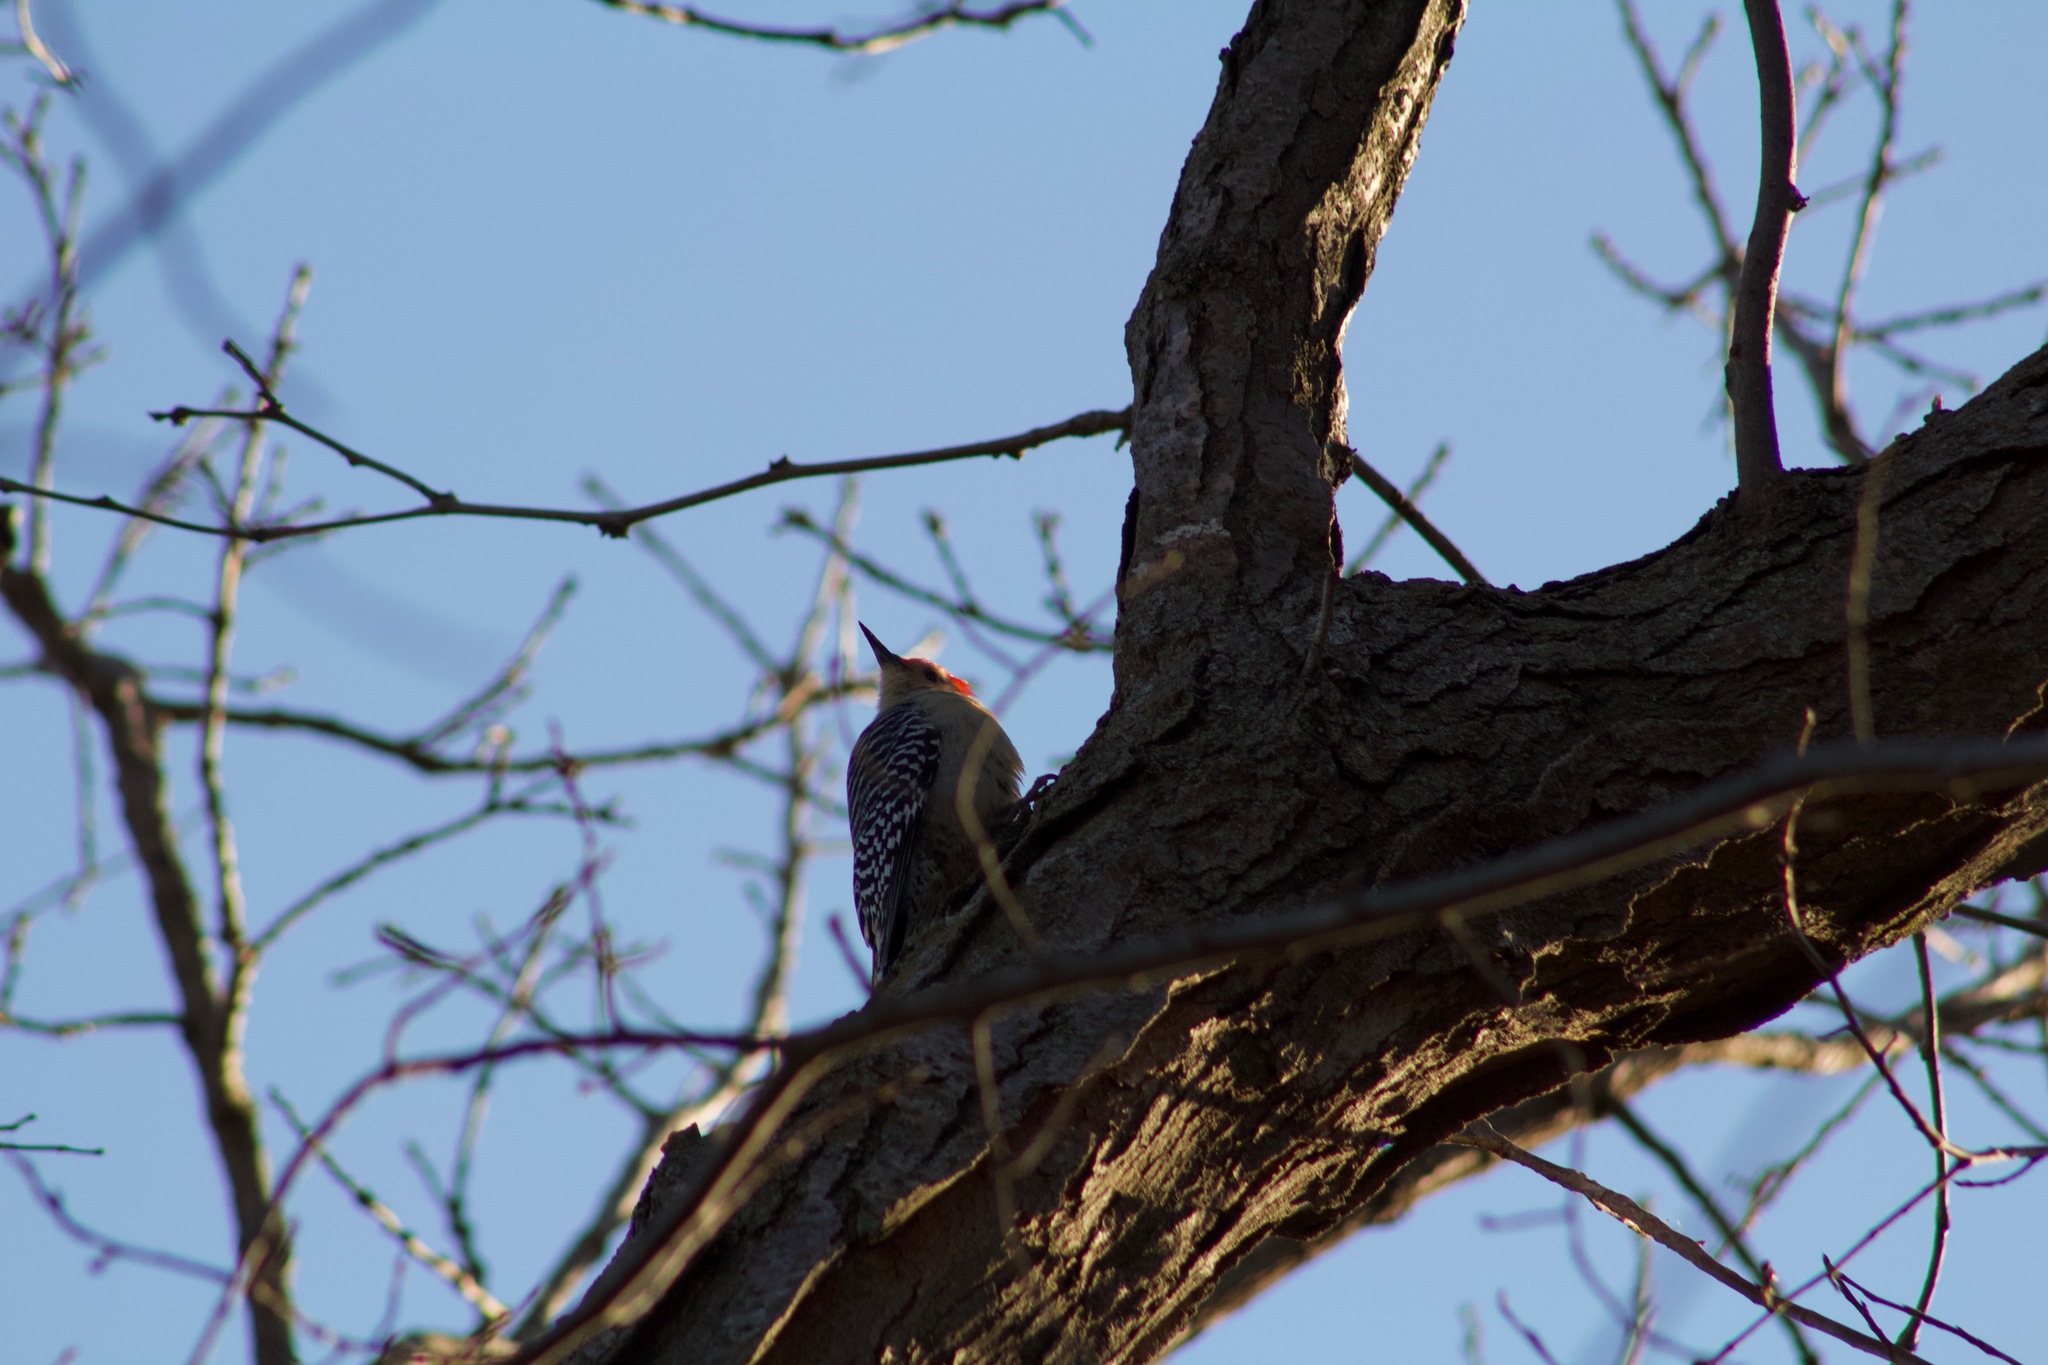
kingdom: Animalia
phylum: Chordata
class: Aves
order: Piciformes
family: Picidae
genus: Melanerpes
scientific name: Melanerpes carolinus
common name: Red-bellied woodpecker
